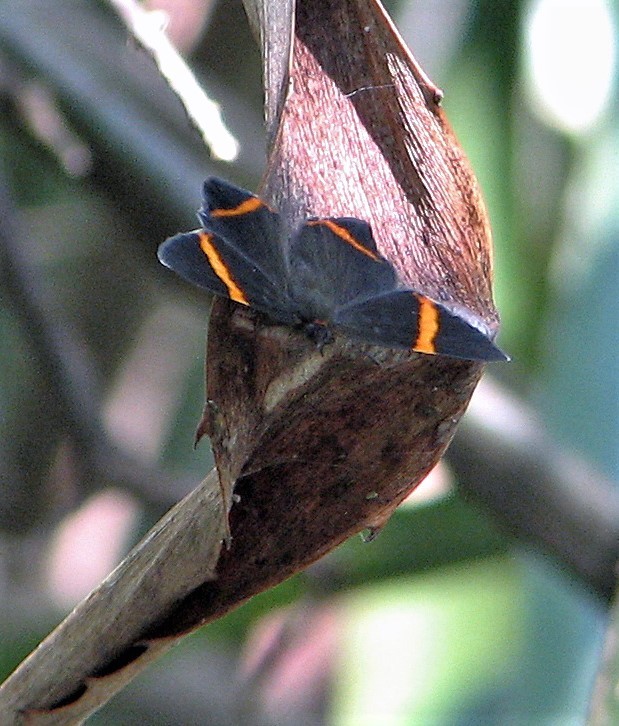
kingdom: Animalia
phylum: Arthropoda
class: Insecta
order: Lepidoptera
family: Riodinidae
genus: Riodina
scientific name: Riodina lysippoides
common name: Little dancer metalmark
